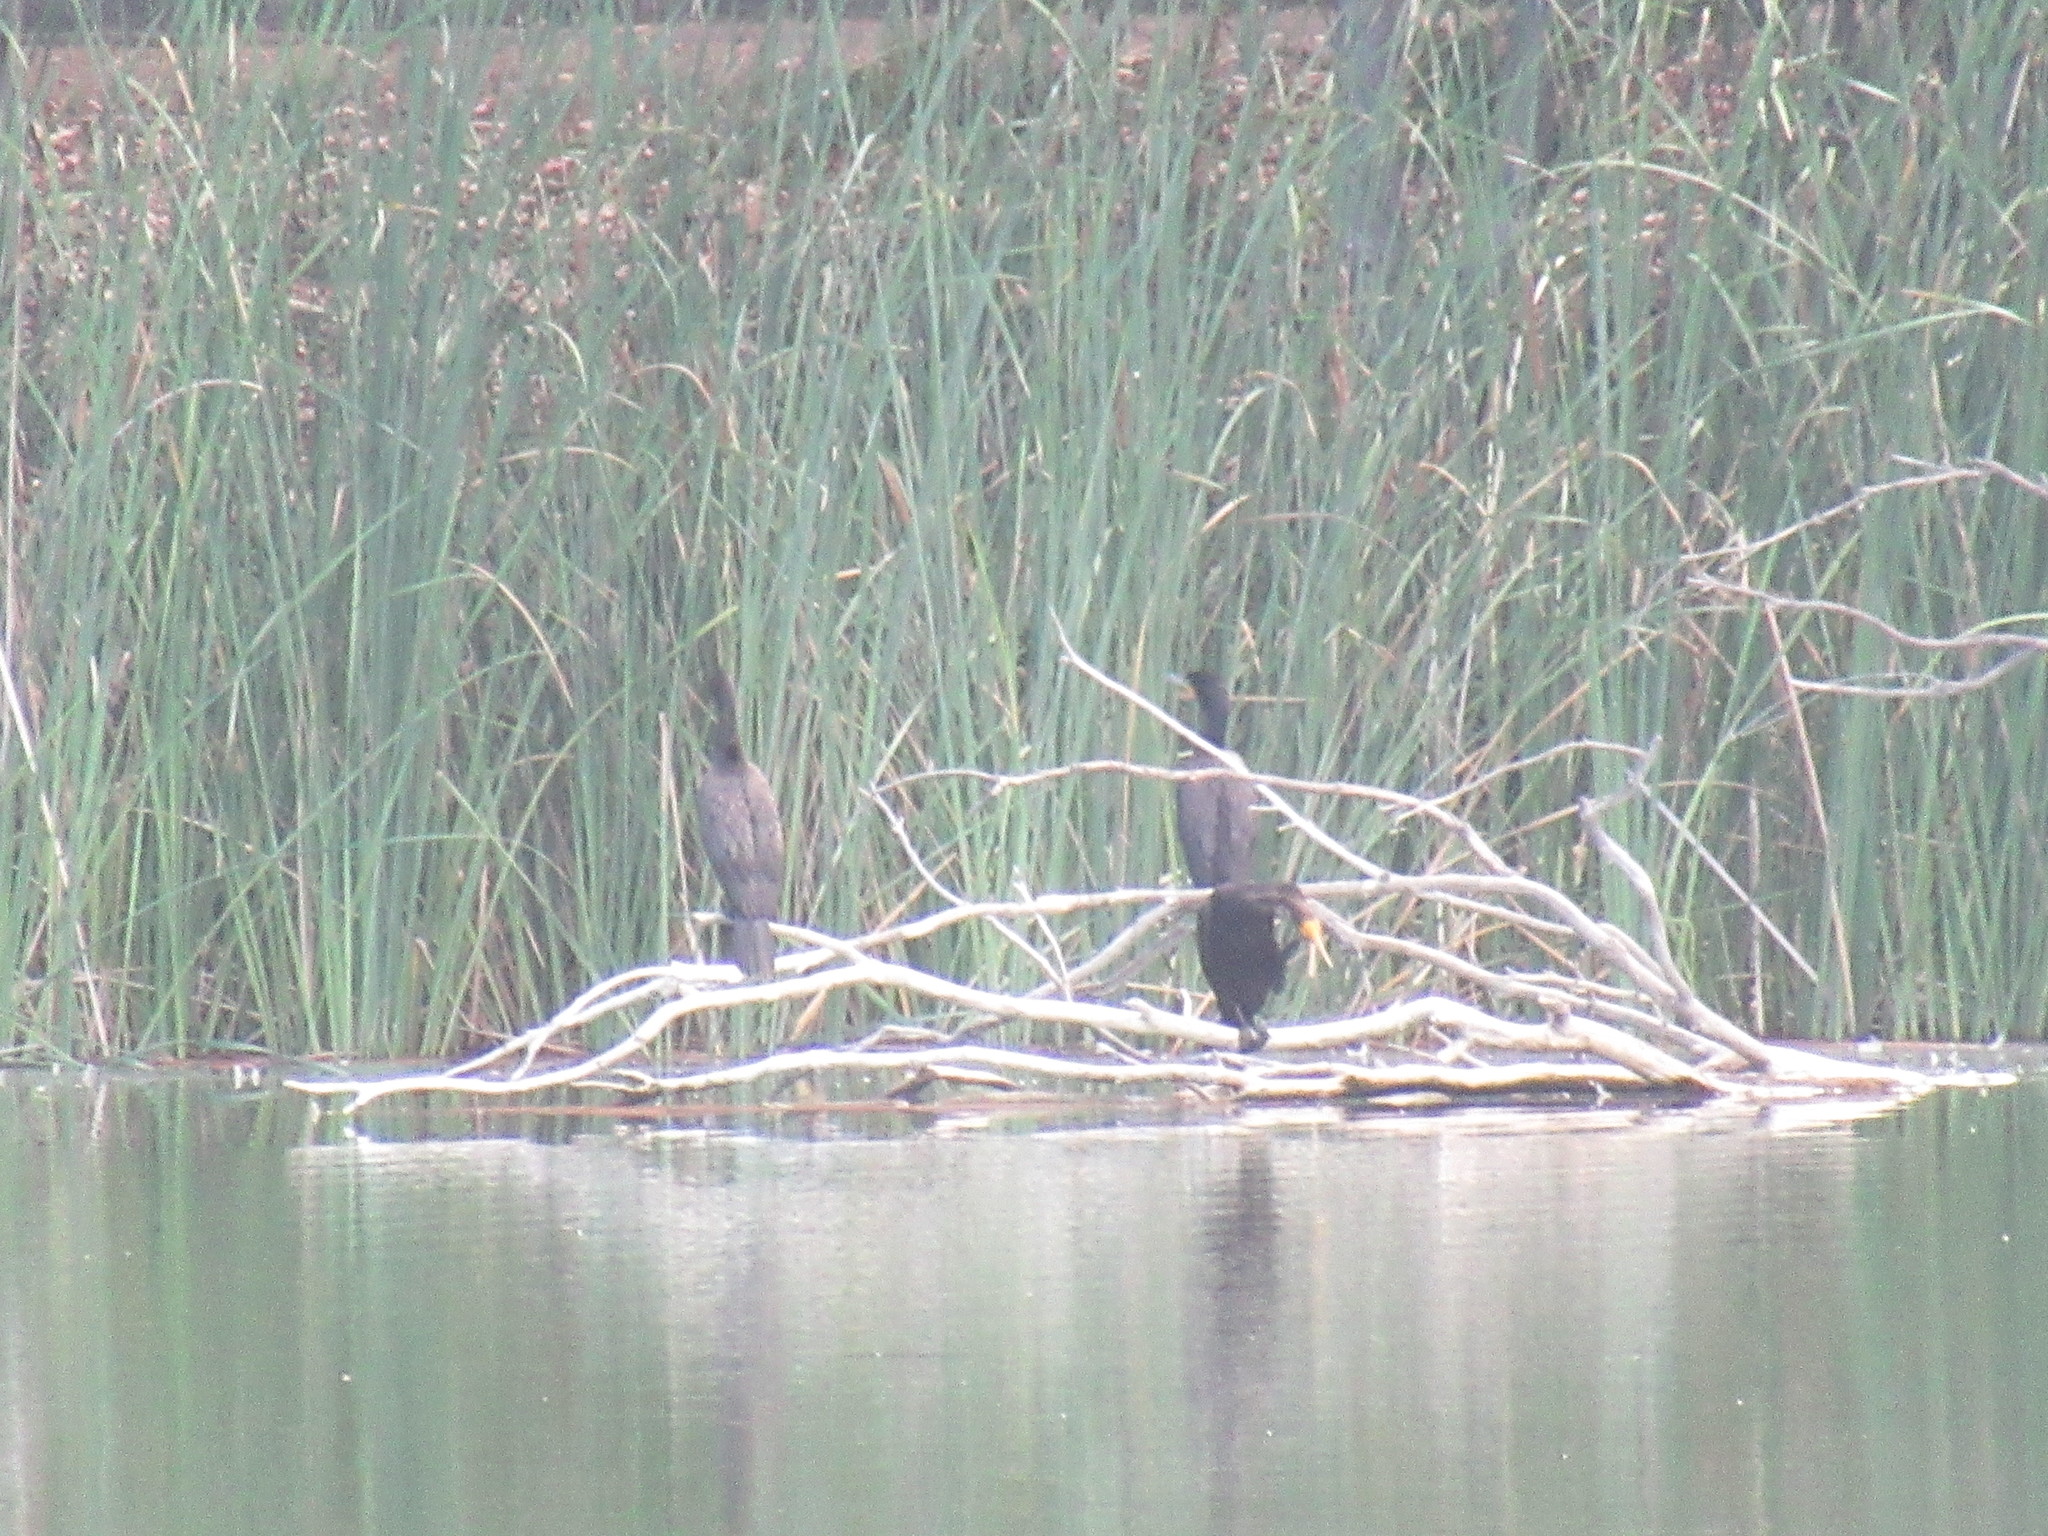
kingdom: Animalia
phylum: Chordata
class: Aves
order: Suliformes
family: Phalacrocoracidae
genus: Phalacrocorax
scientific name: Phalacrocorax auritus
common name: Double-crested cormorant
